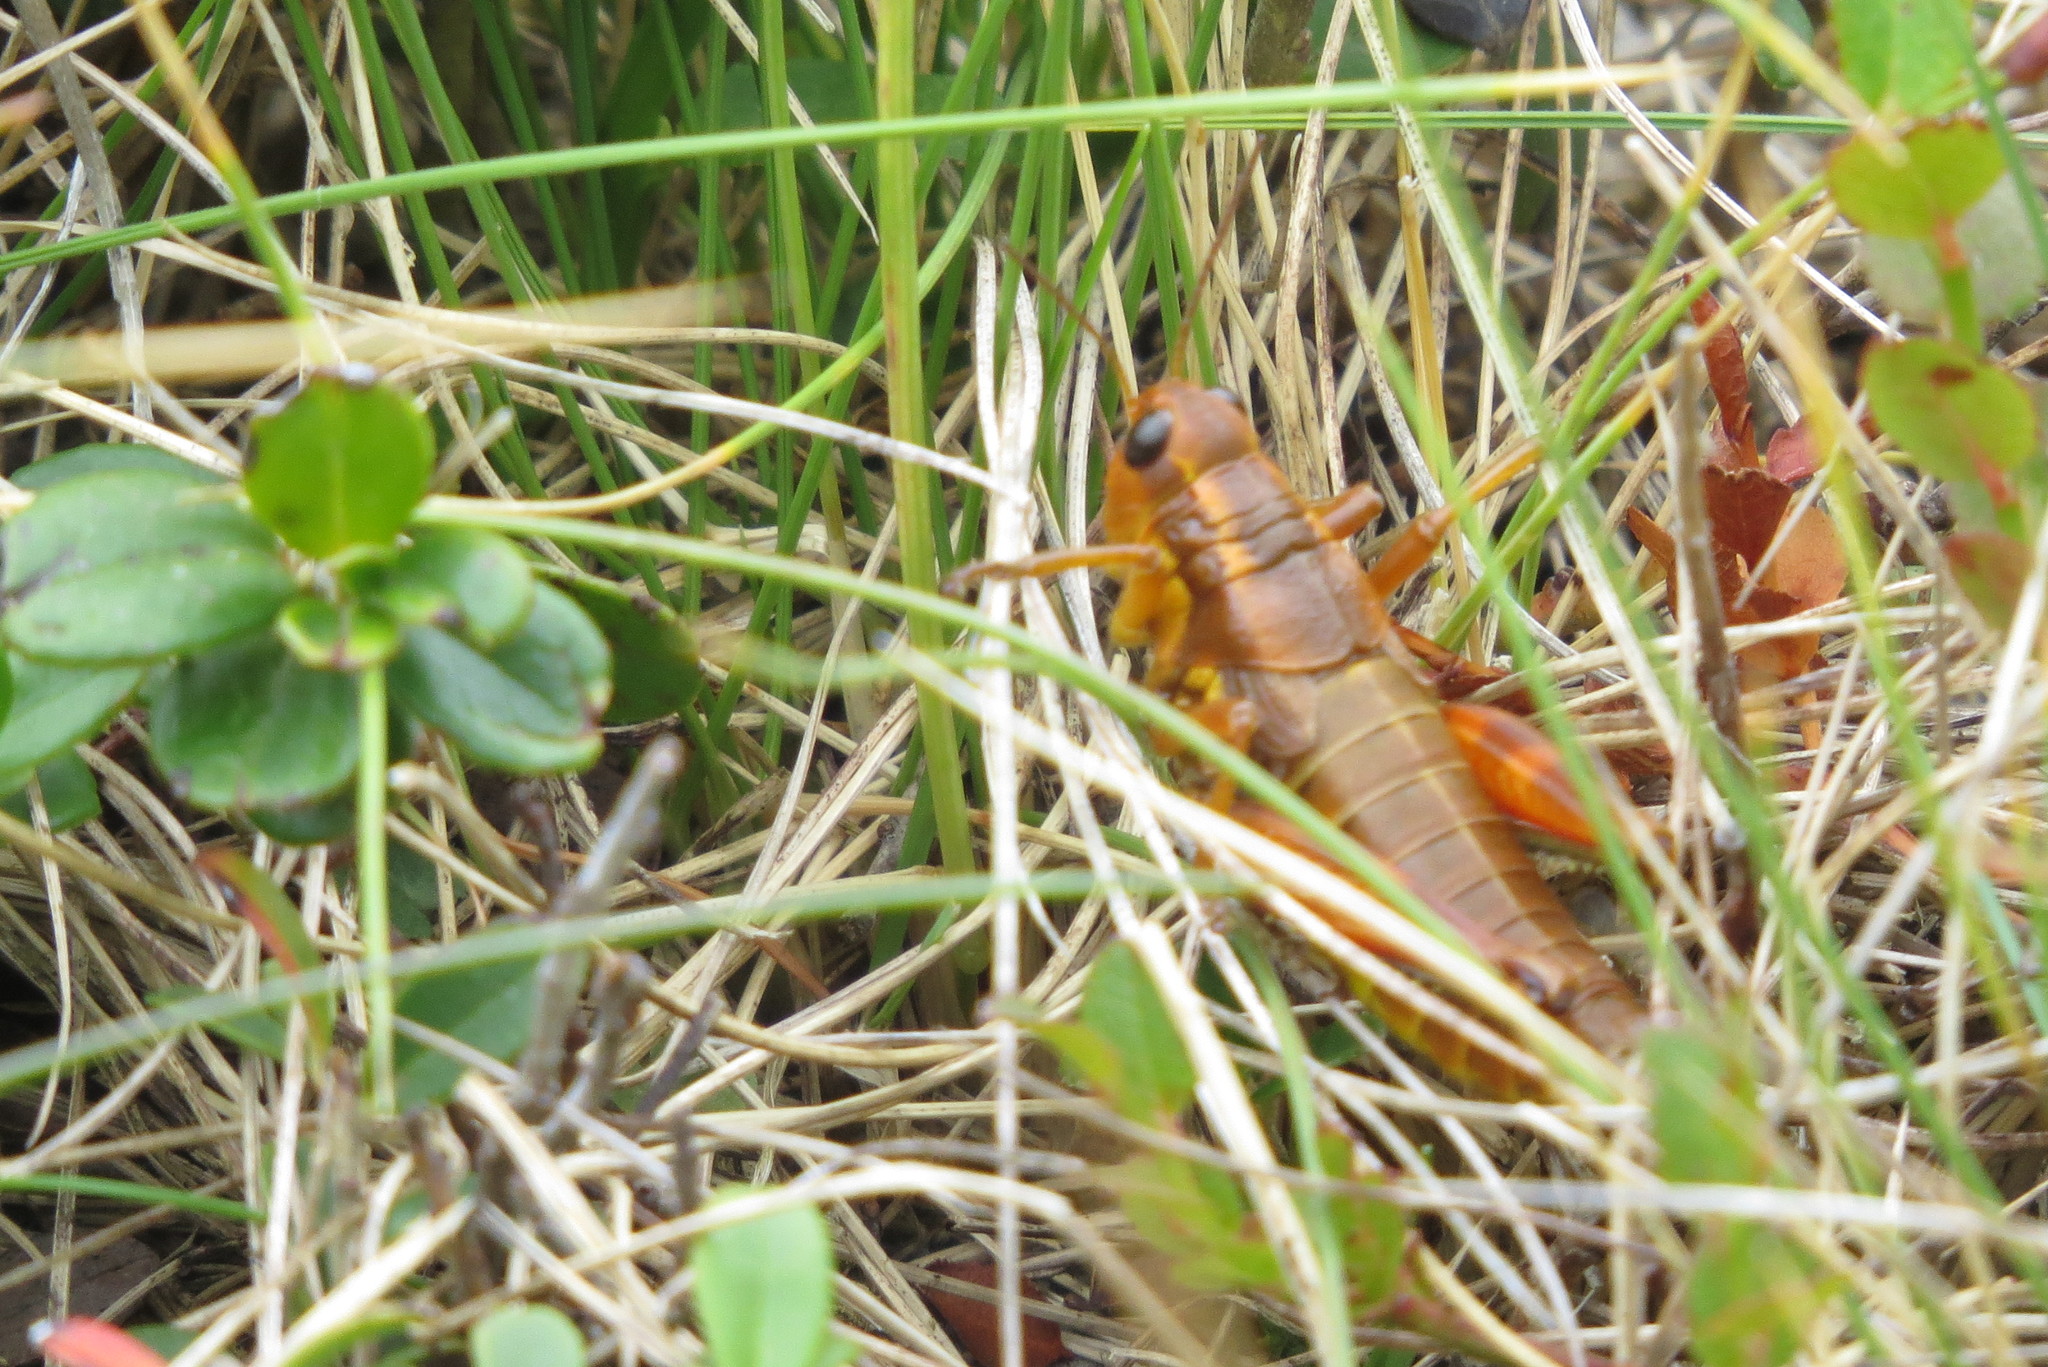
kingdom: Animalia
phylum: Arthropoda
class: Insecta
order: Orthoptera
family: Acrididae
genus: Podisma
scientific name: Podisma pedestris
